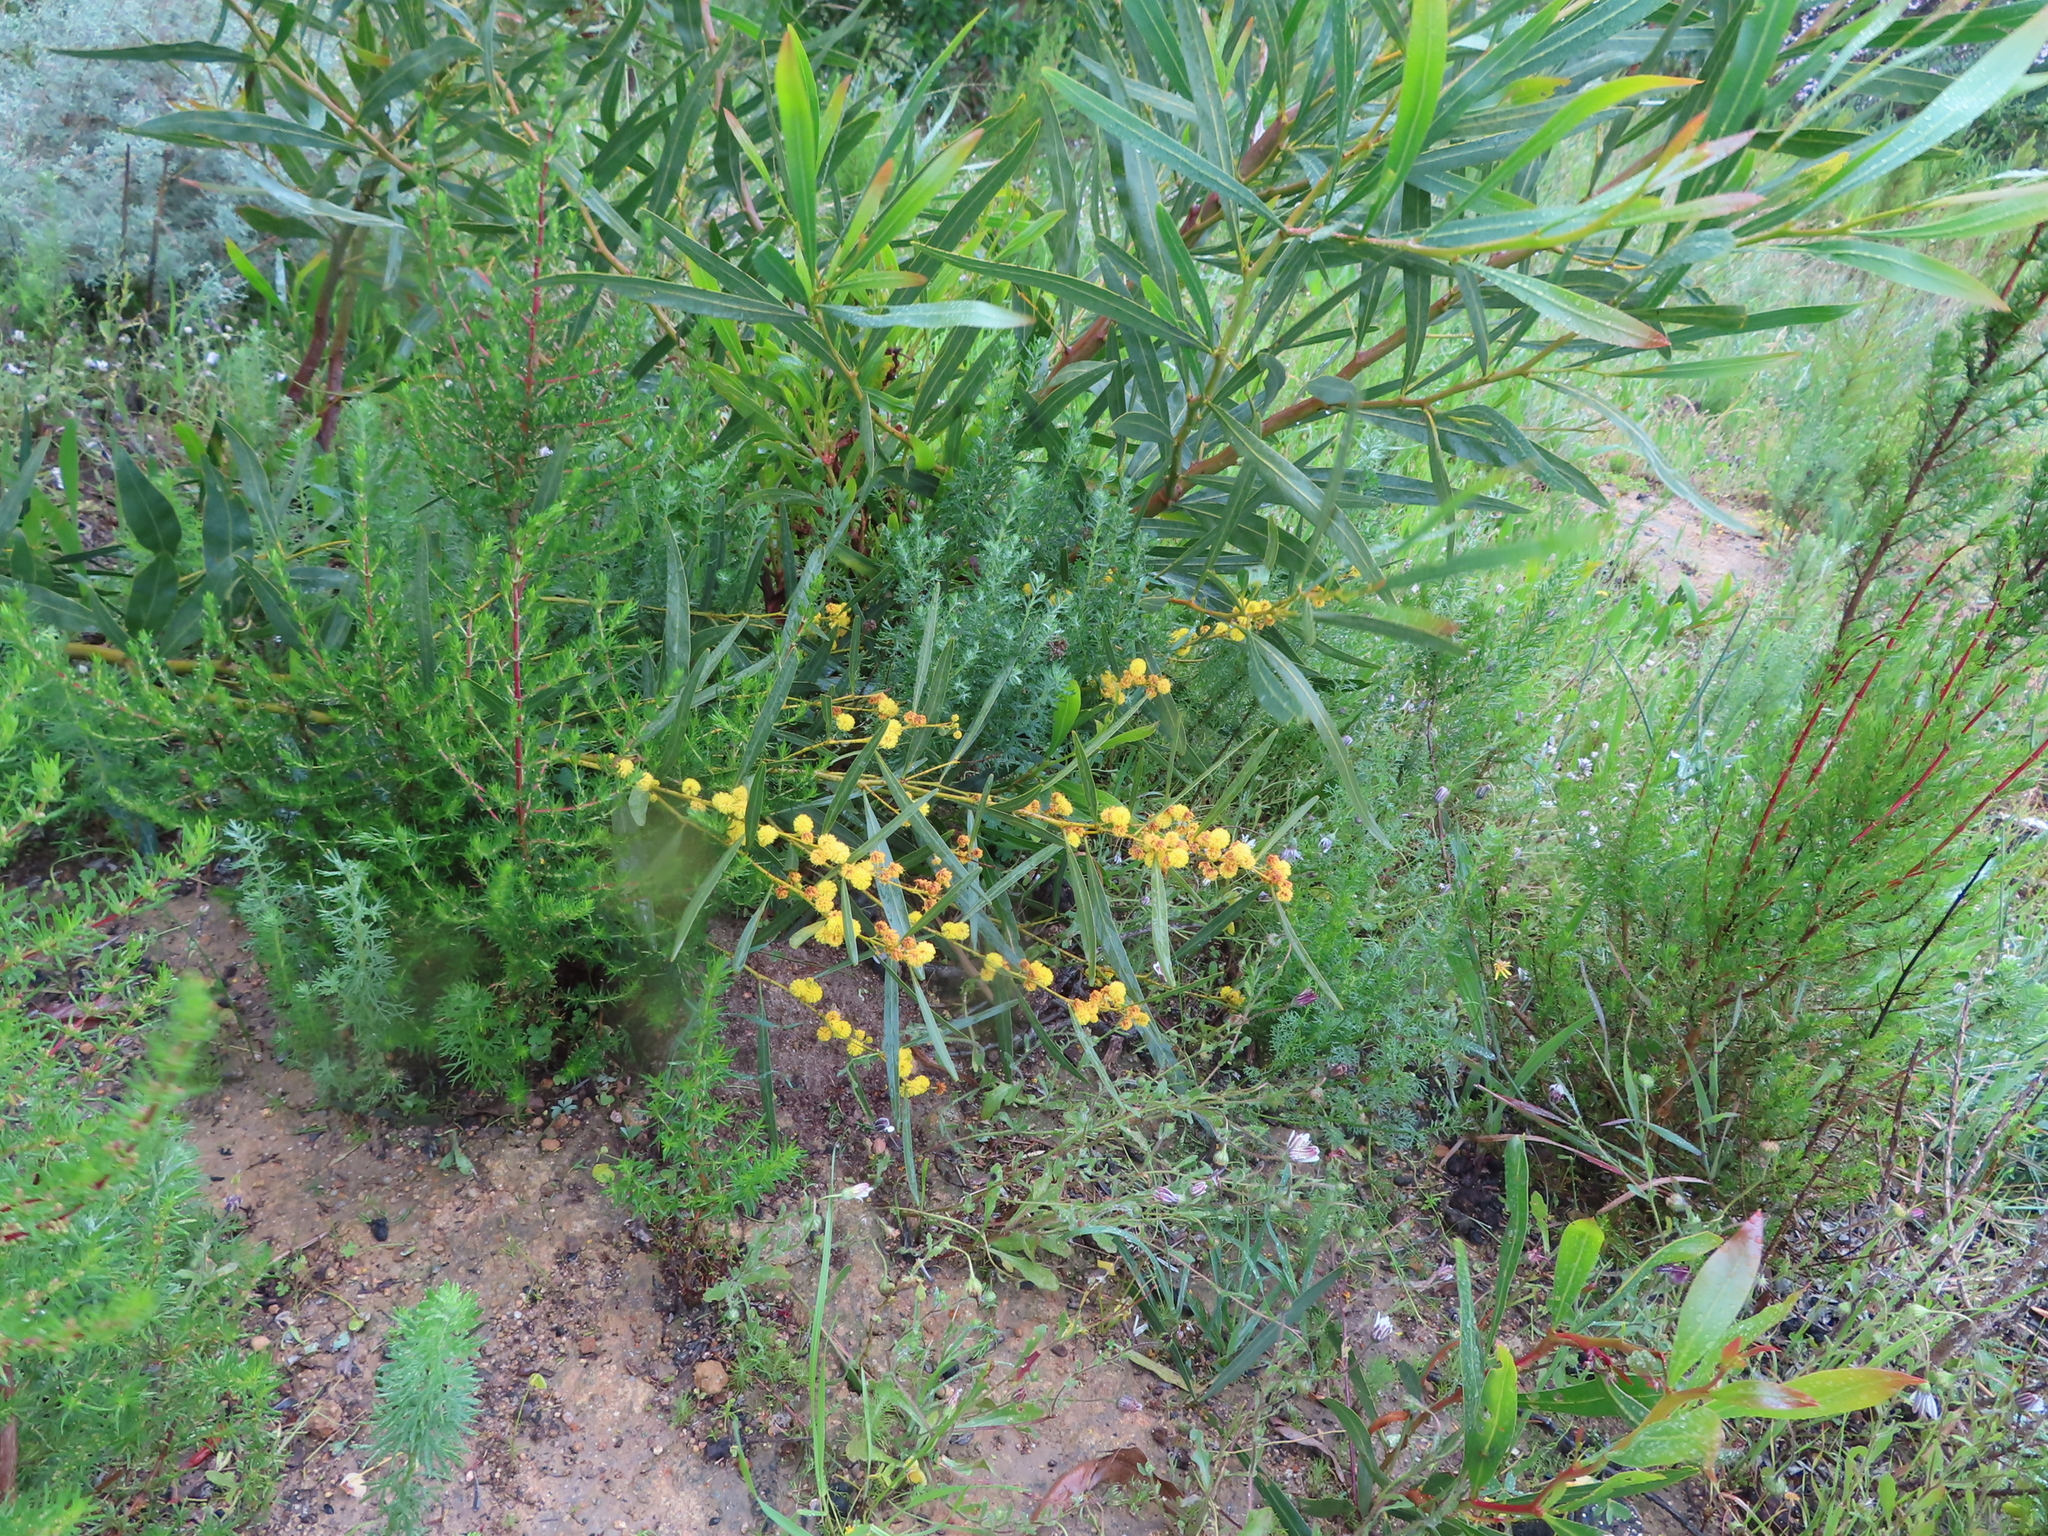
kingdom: Plantae
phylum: Tracheophyta
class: Magnoliopsida
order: Fabales
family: Fabaceae
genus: Acacia
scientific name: Acacia saligna
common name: Orange wattle
